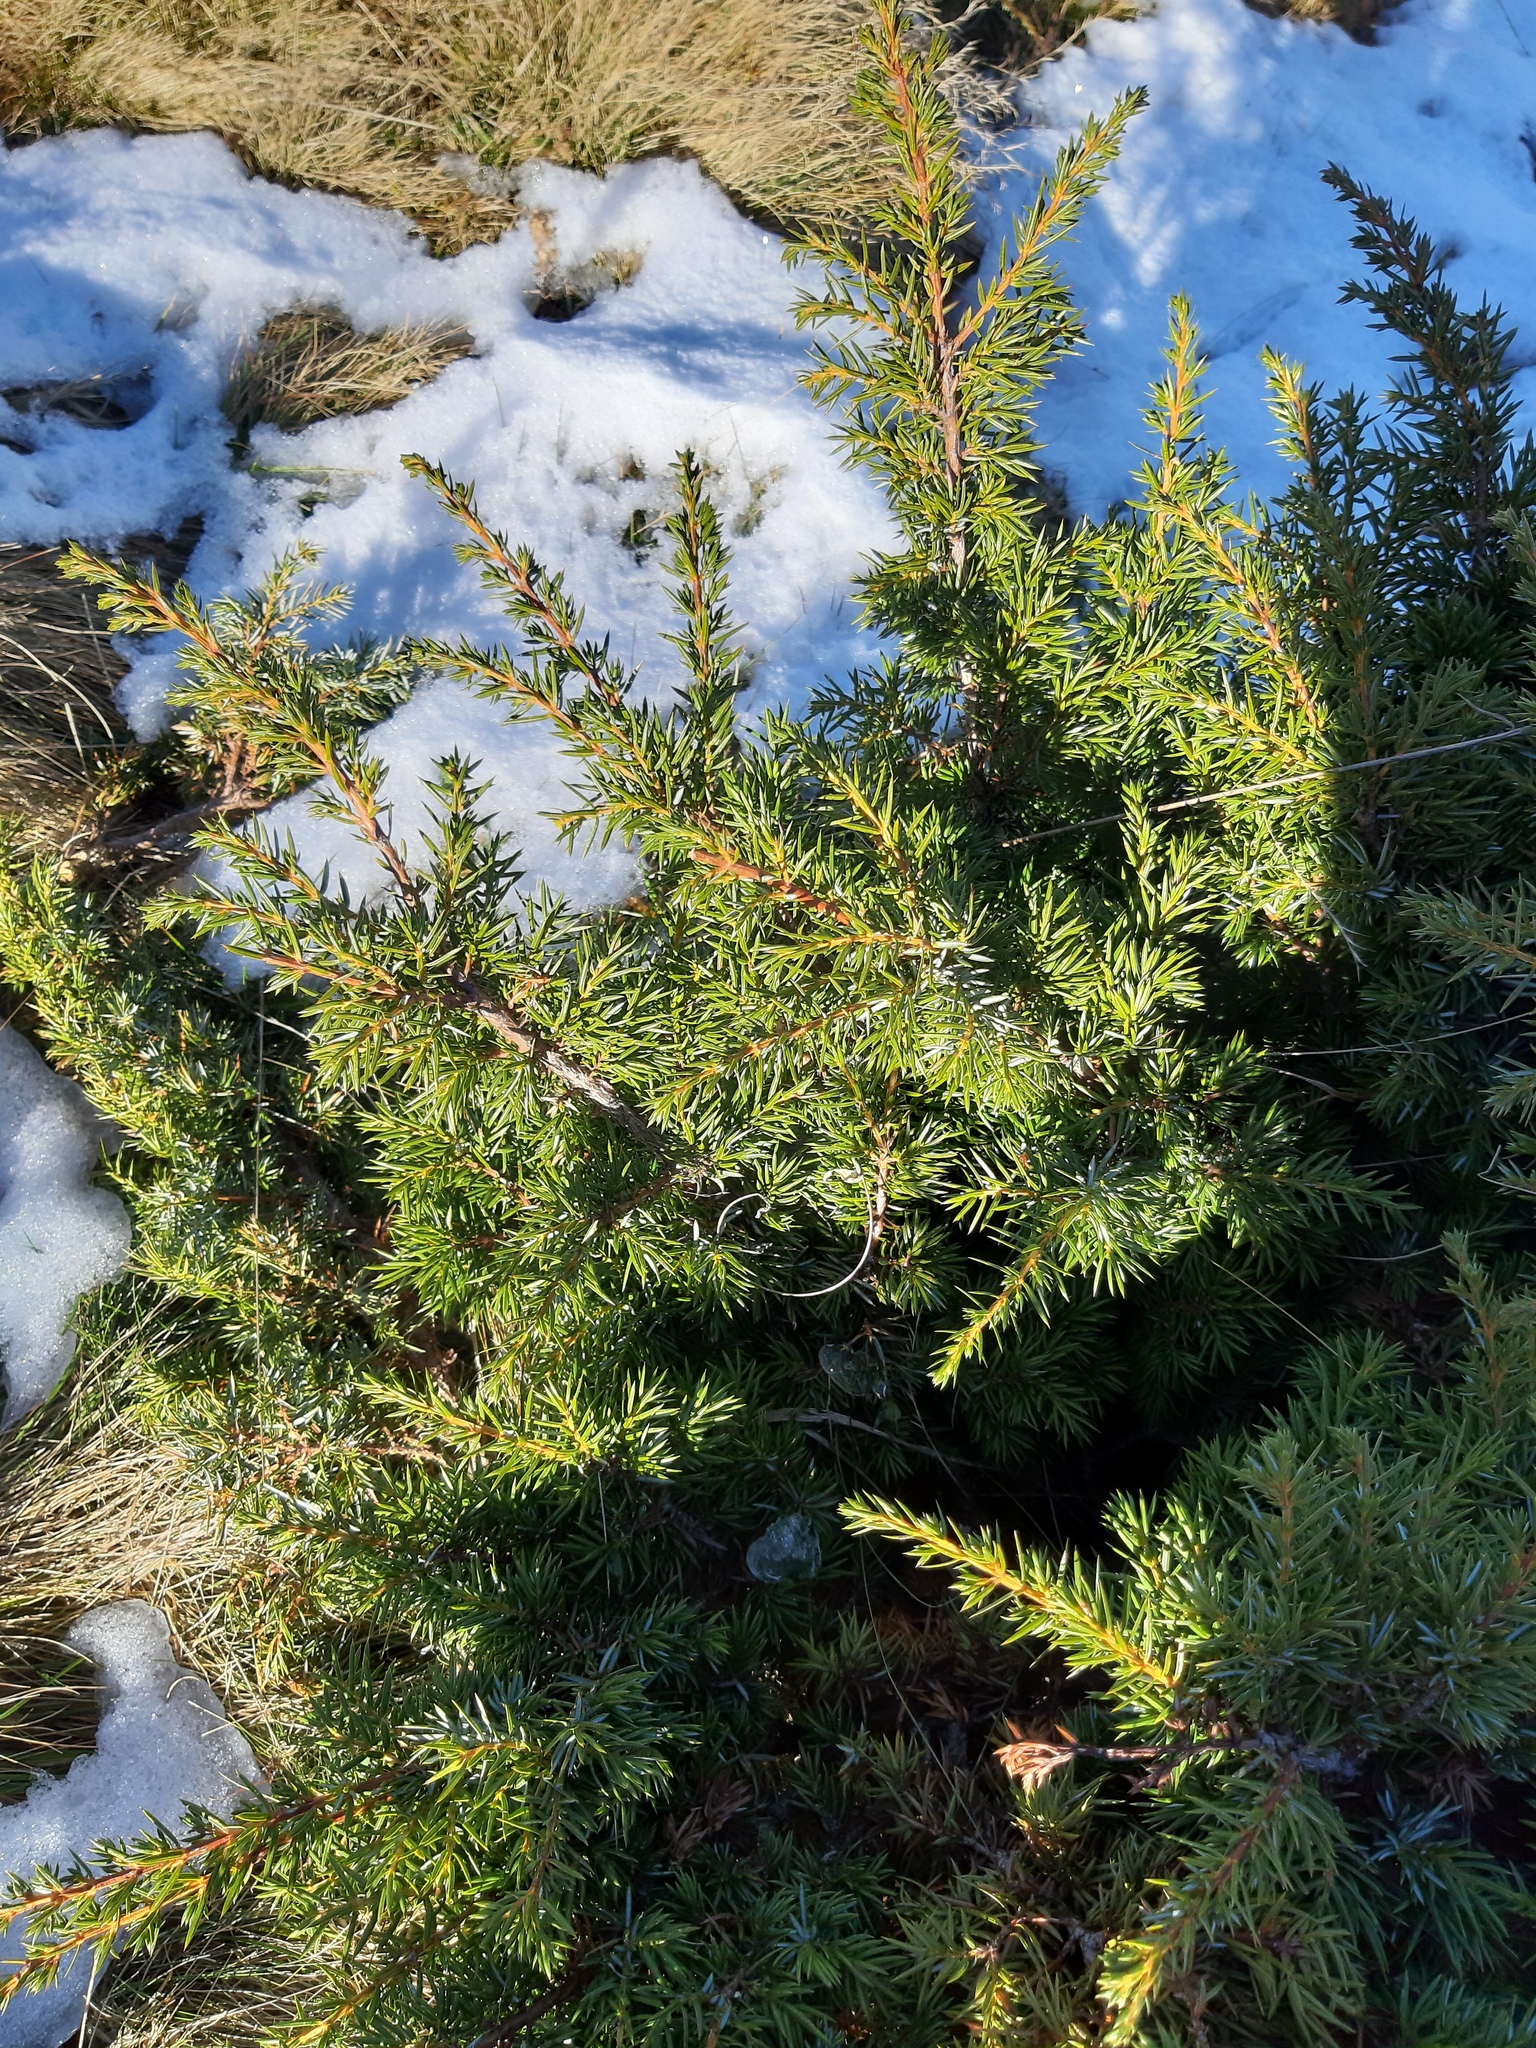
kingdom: Plantae
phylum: Tracheophyta
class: Pinopsida
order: Pinales
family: Cupressaceae
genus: Juniperus
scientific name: Juniperus communis
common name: Common juniper
